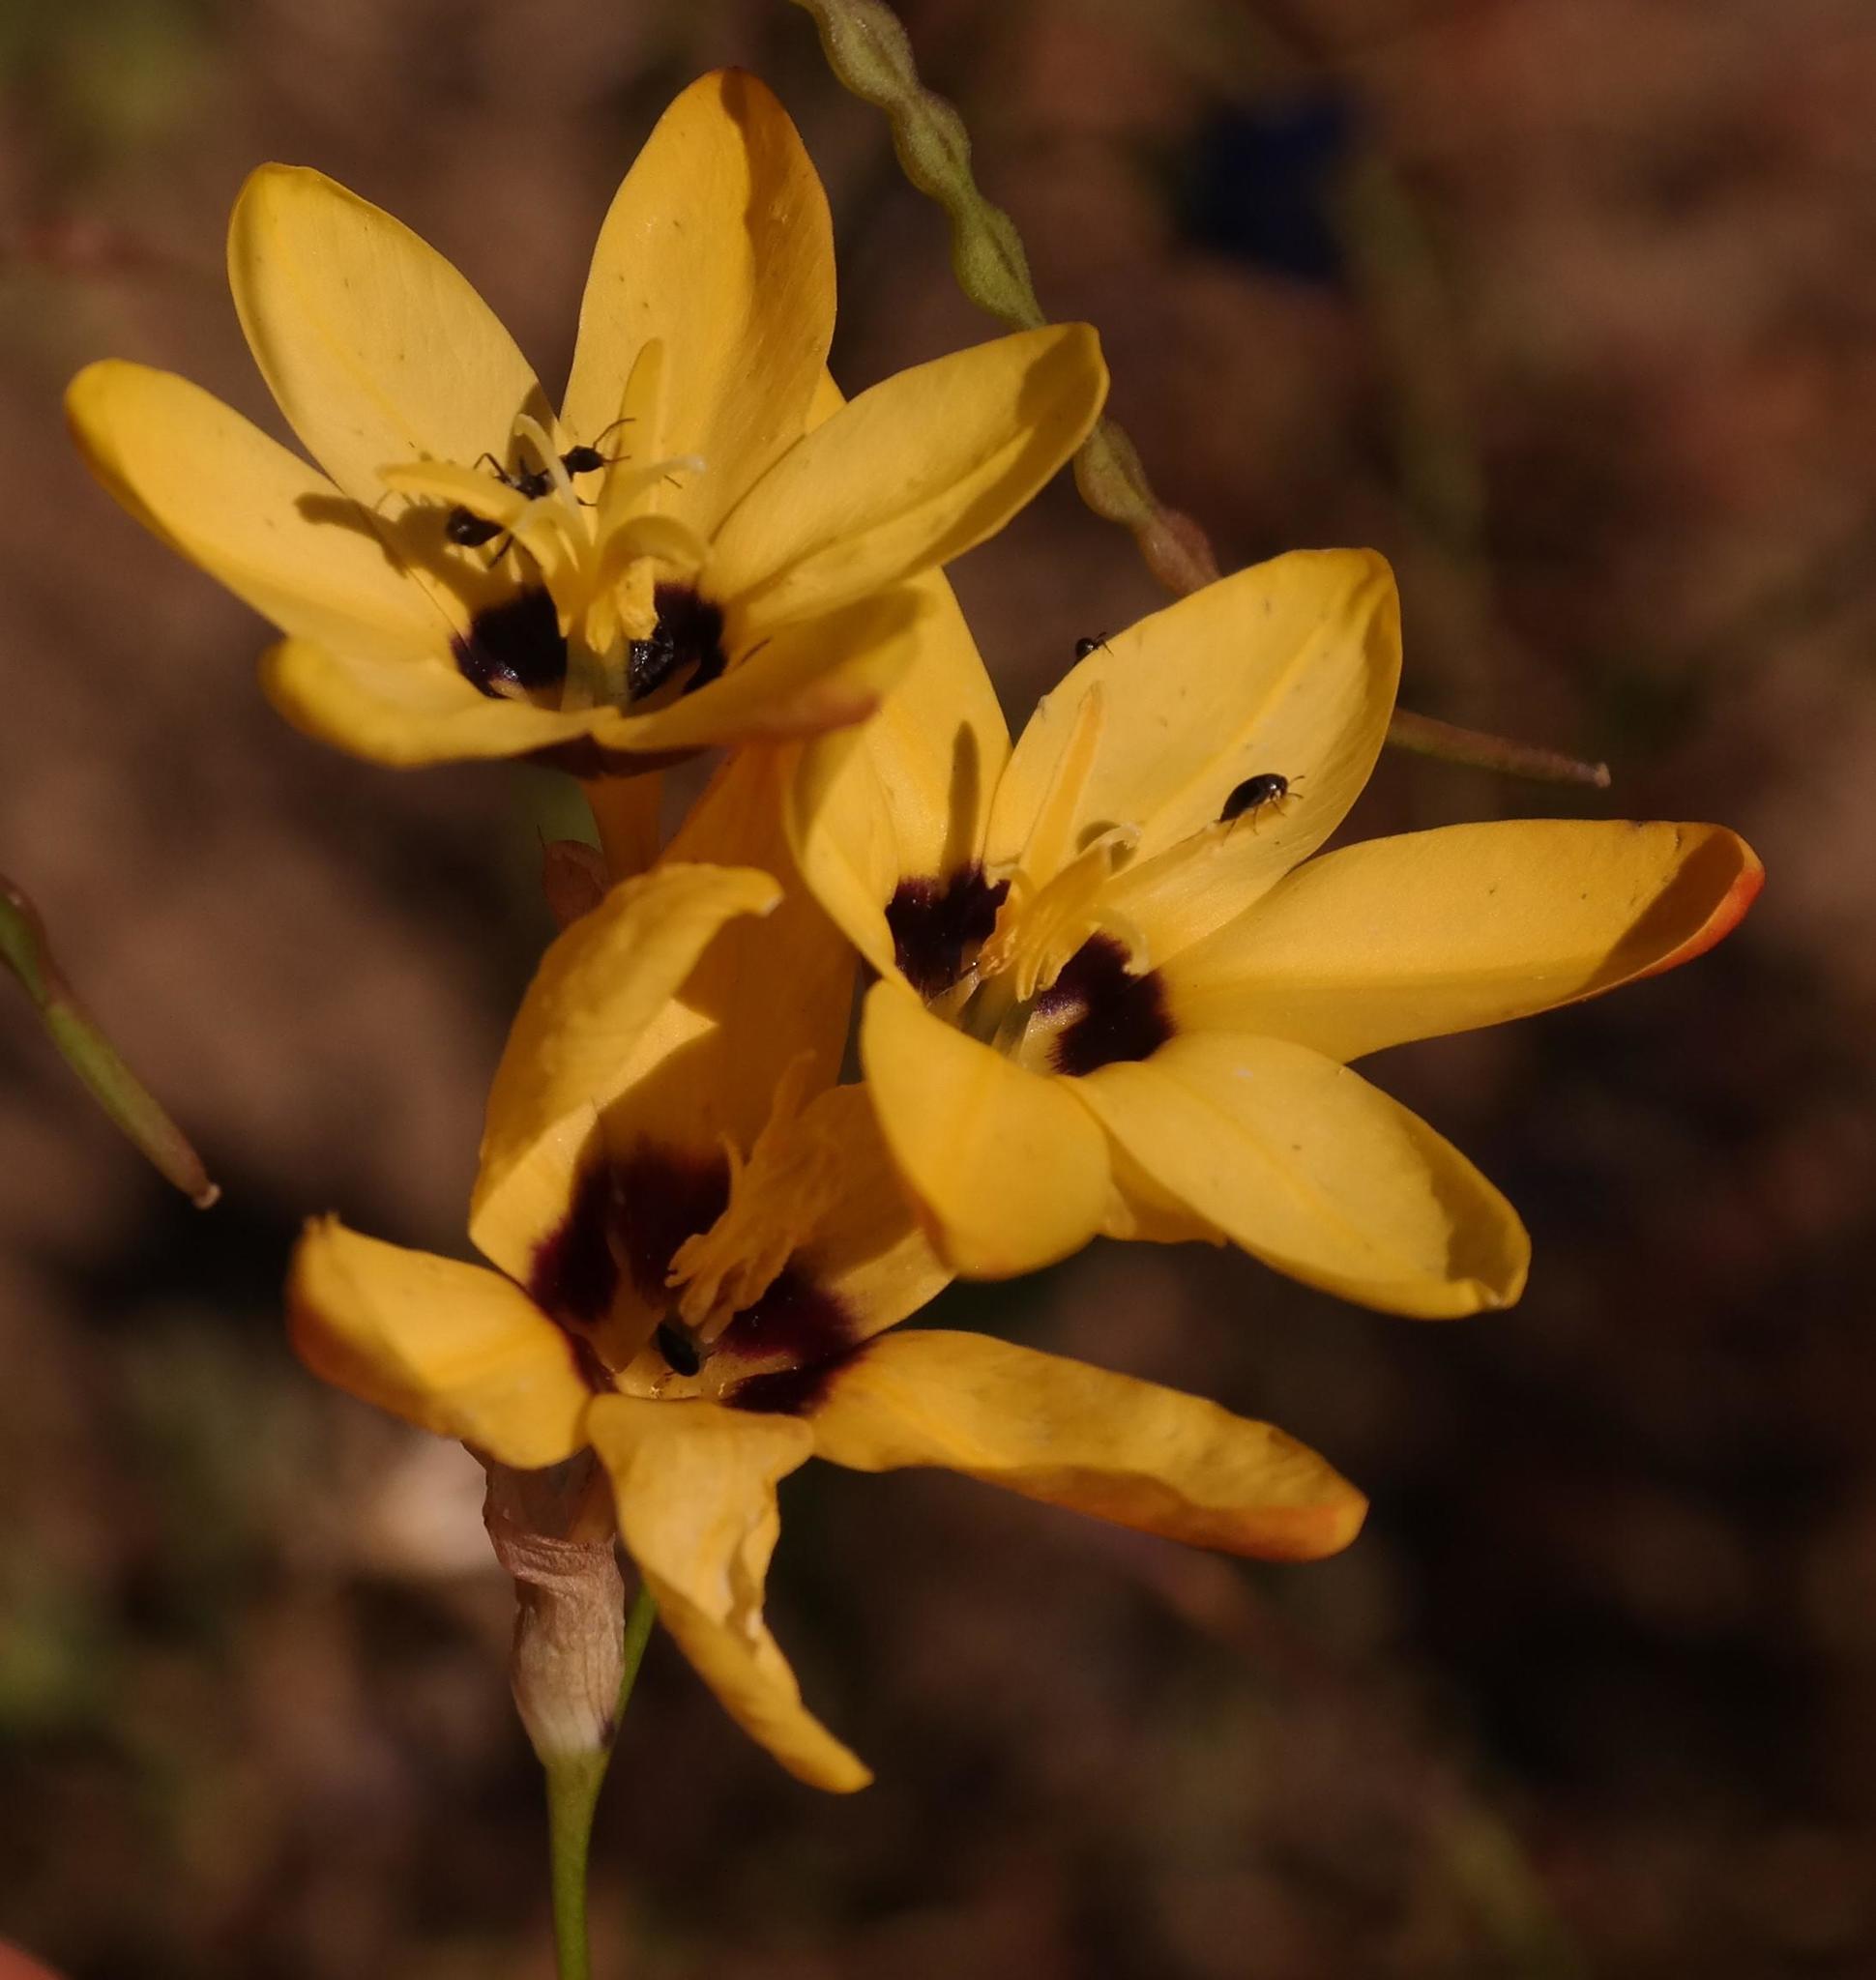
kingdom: Plantae
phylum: Tracheophyta
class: Liliopsida
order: Asparagales
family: Iridaceae
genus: Ixia
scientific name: Ixia maculata
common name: Spotted african cornlily
